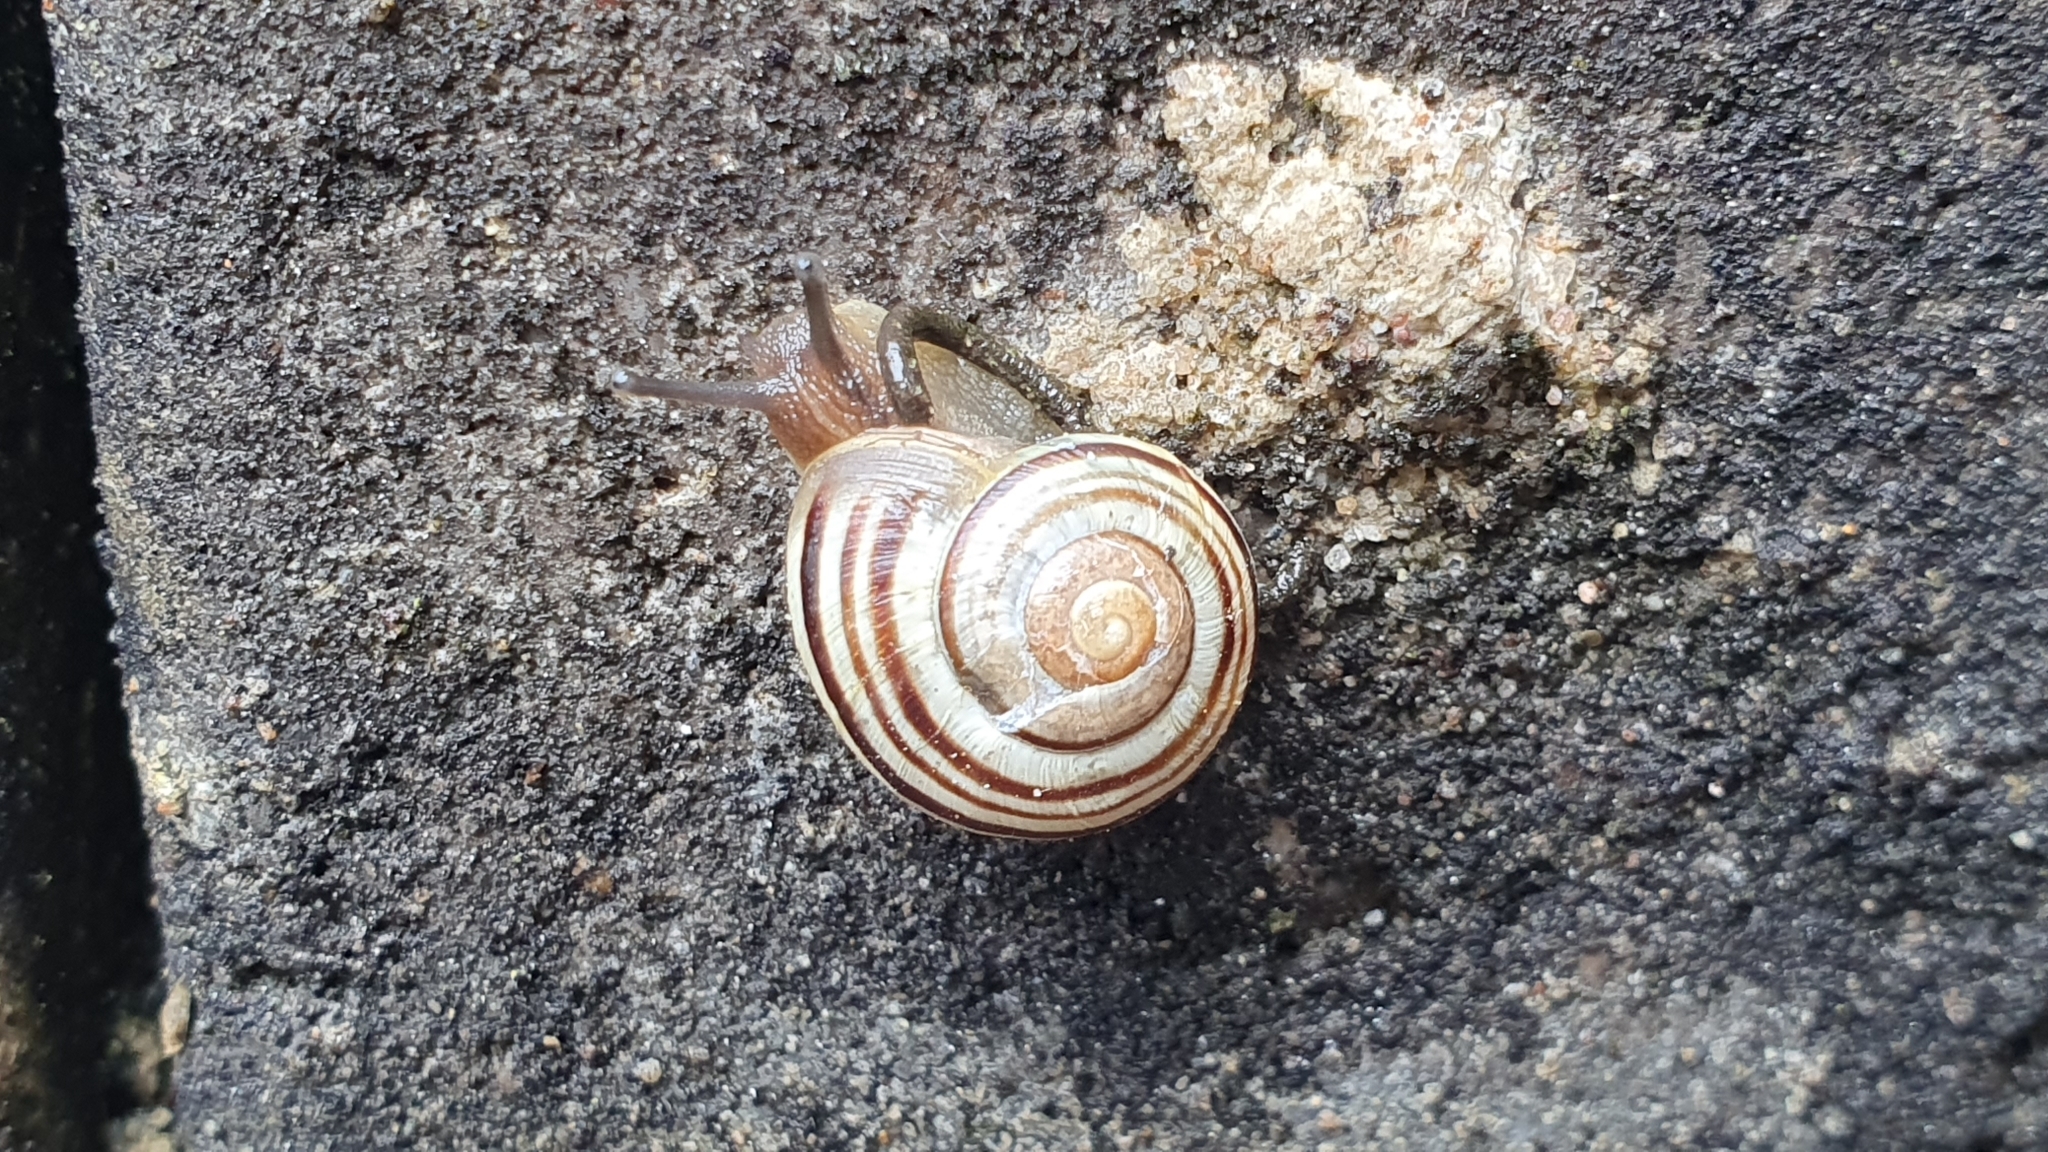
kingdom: Animalia
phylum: Mollusca
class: Gastropoda
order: Stylommatophora
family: Helicidae
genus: Cepaea
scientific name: Cepaea hortensis
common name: White-lip gardensnail
